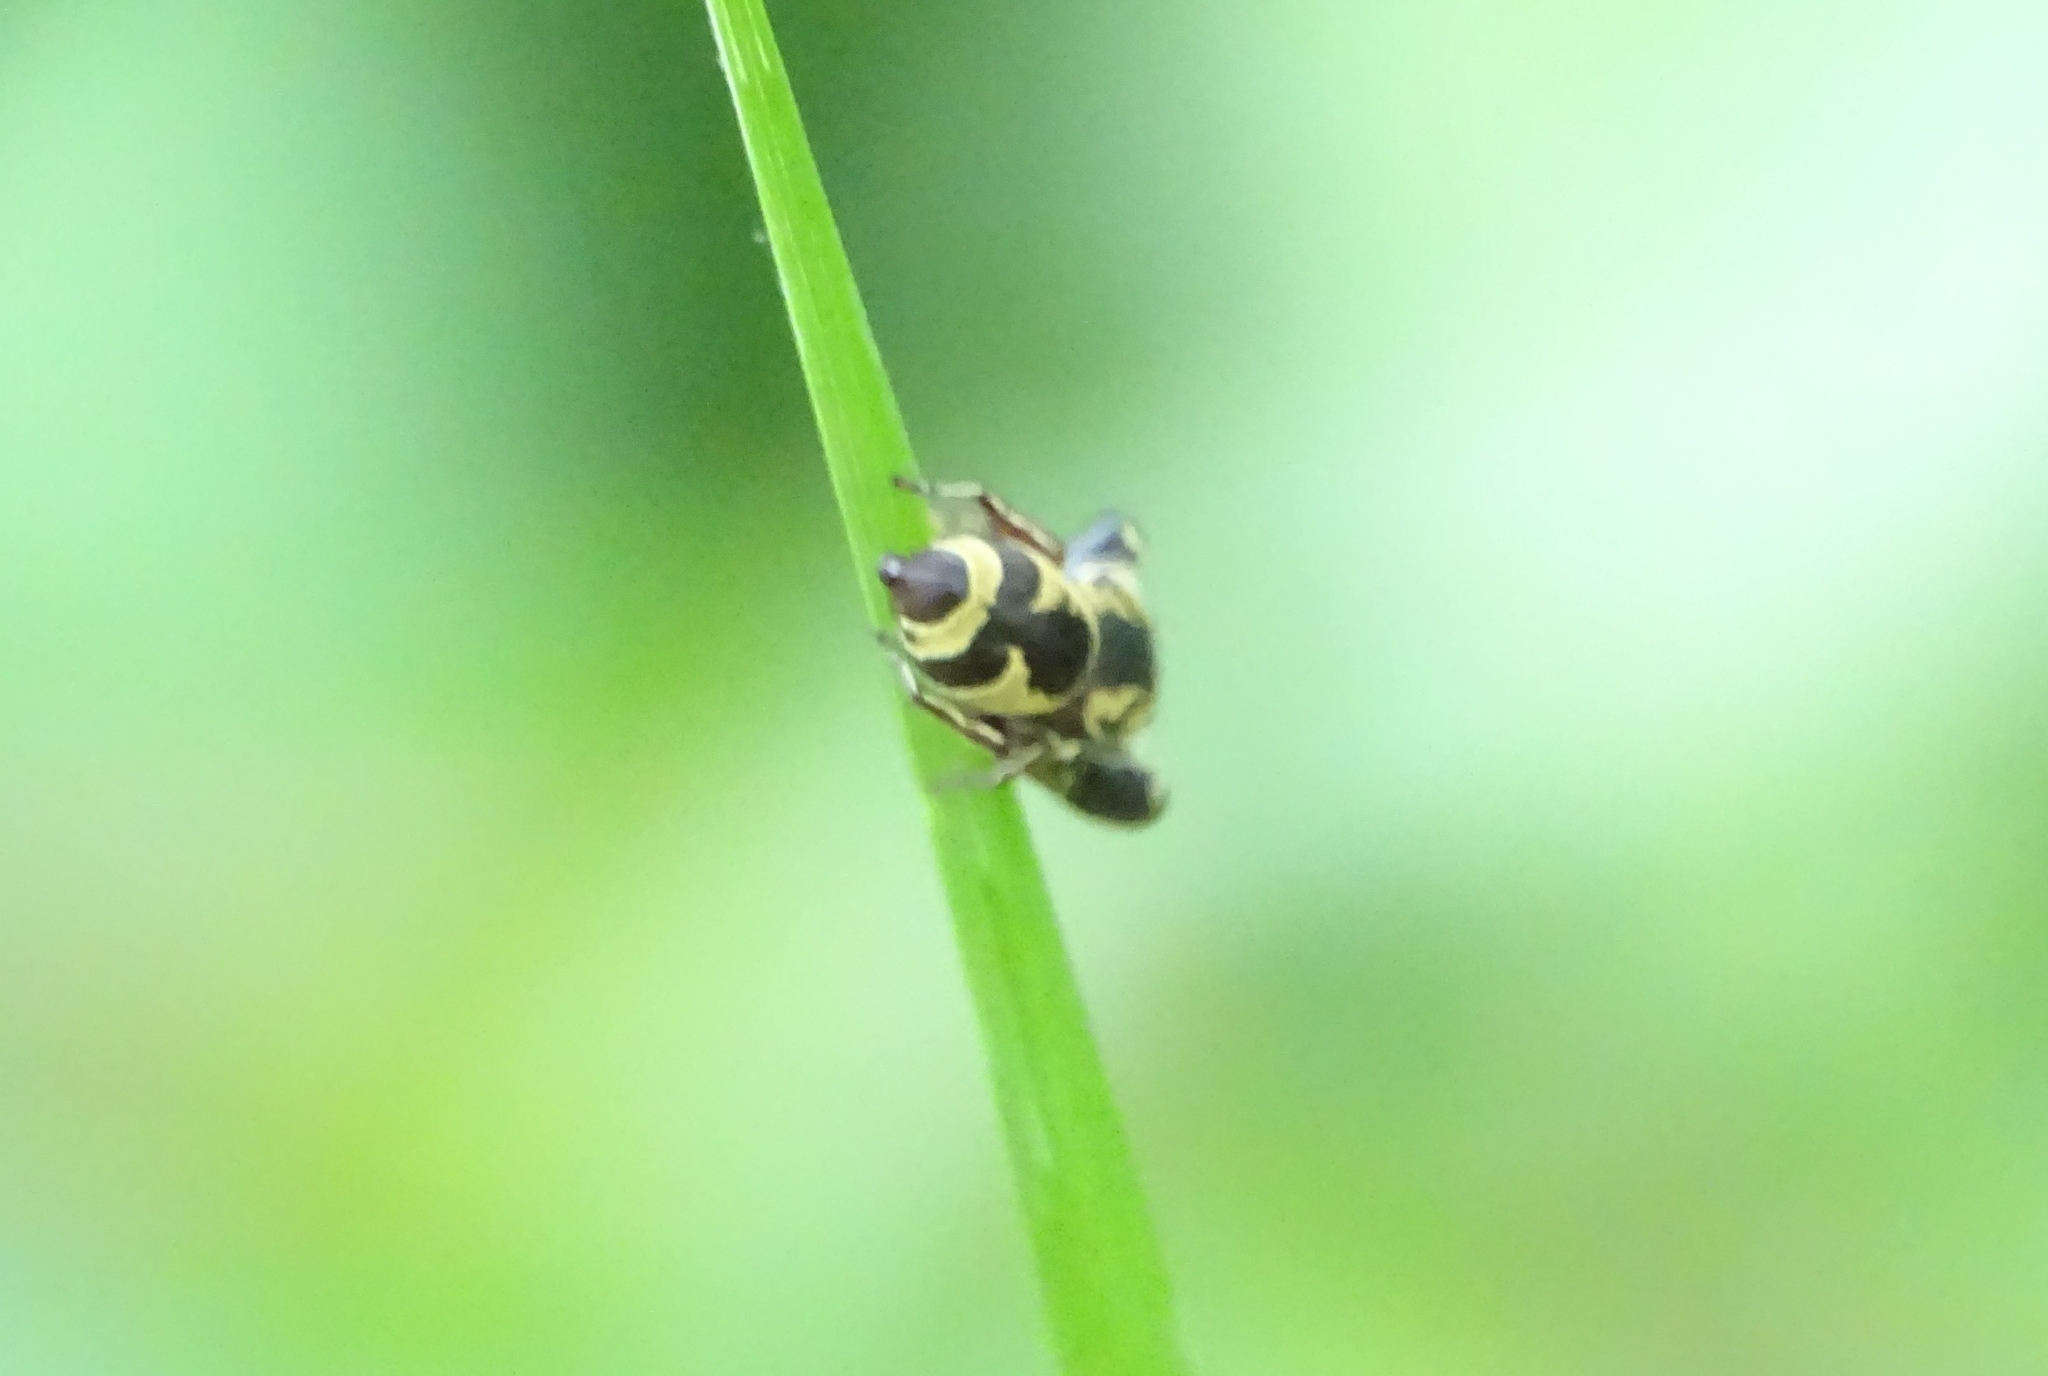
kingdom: Animalia
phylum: Arthropoda
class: Arachnida
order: Araneae
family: Salticidae
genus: Rhene
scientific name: Rhene flavicomans
